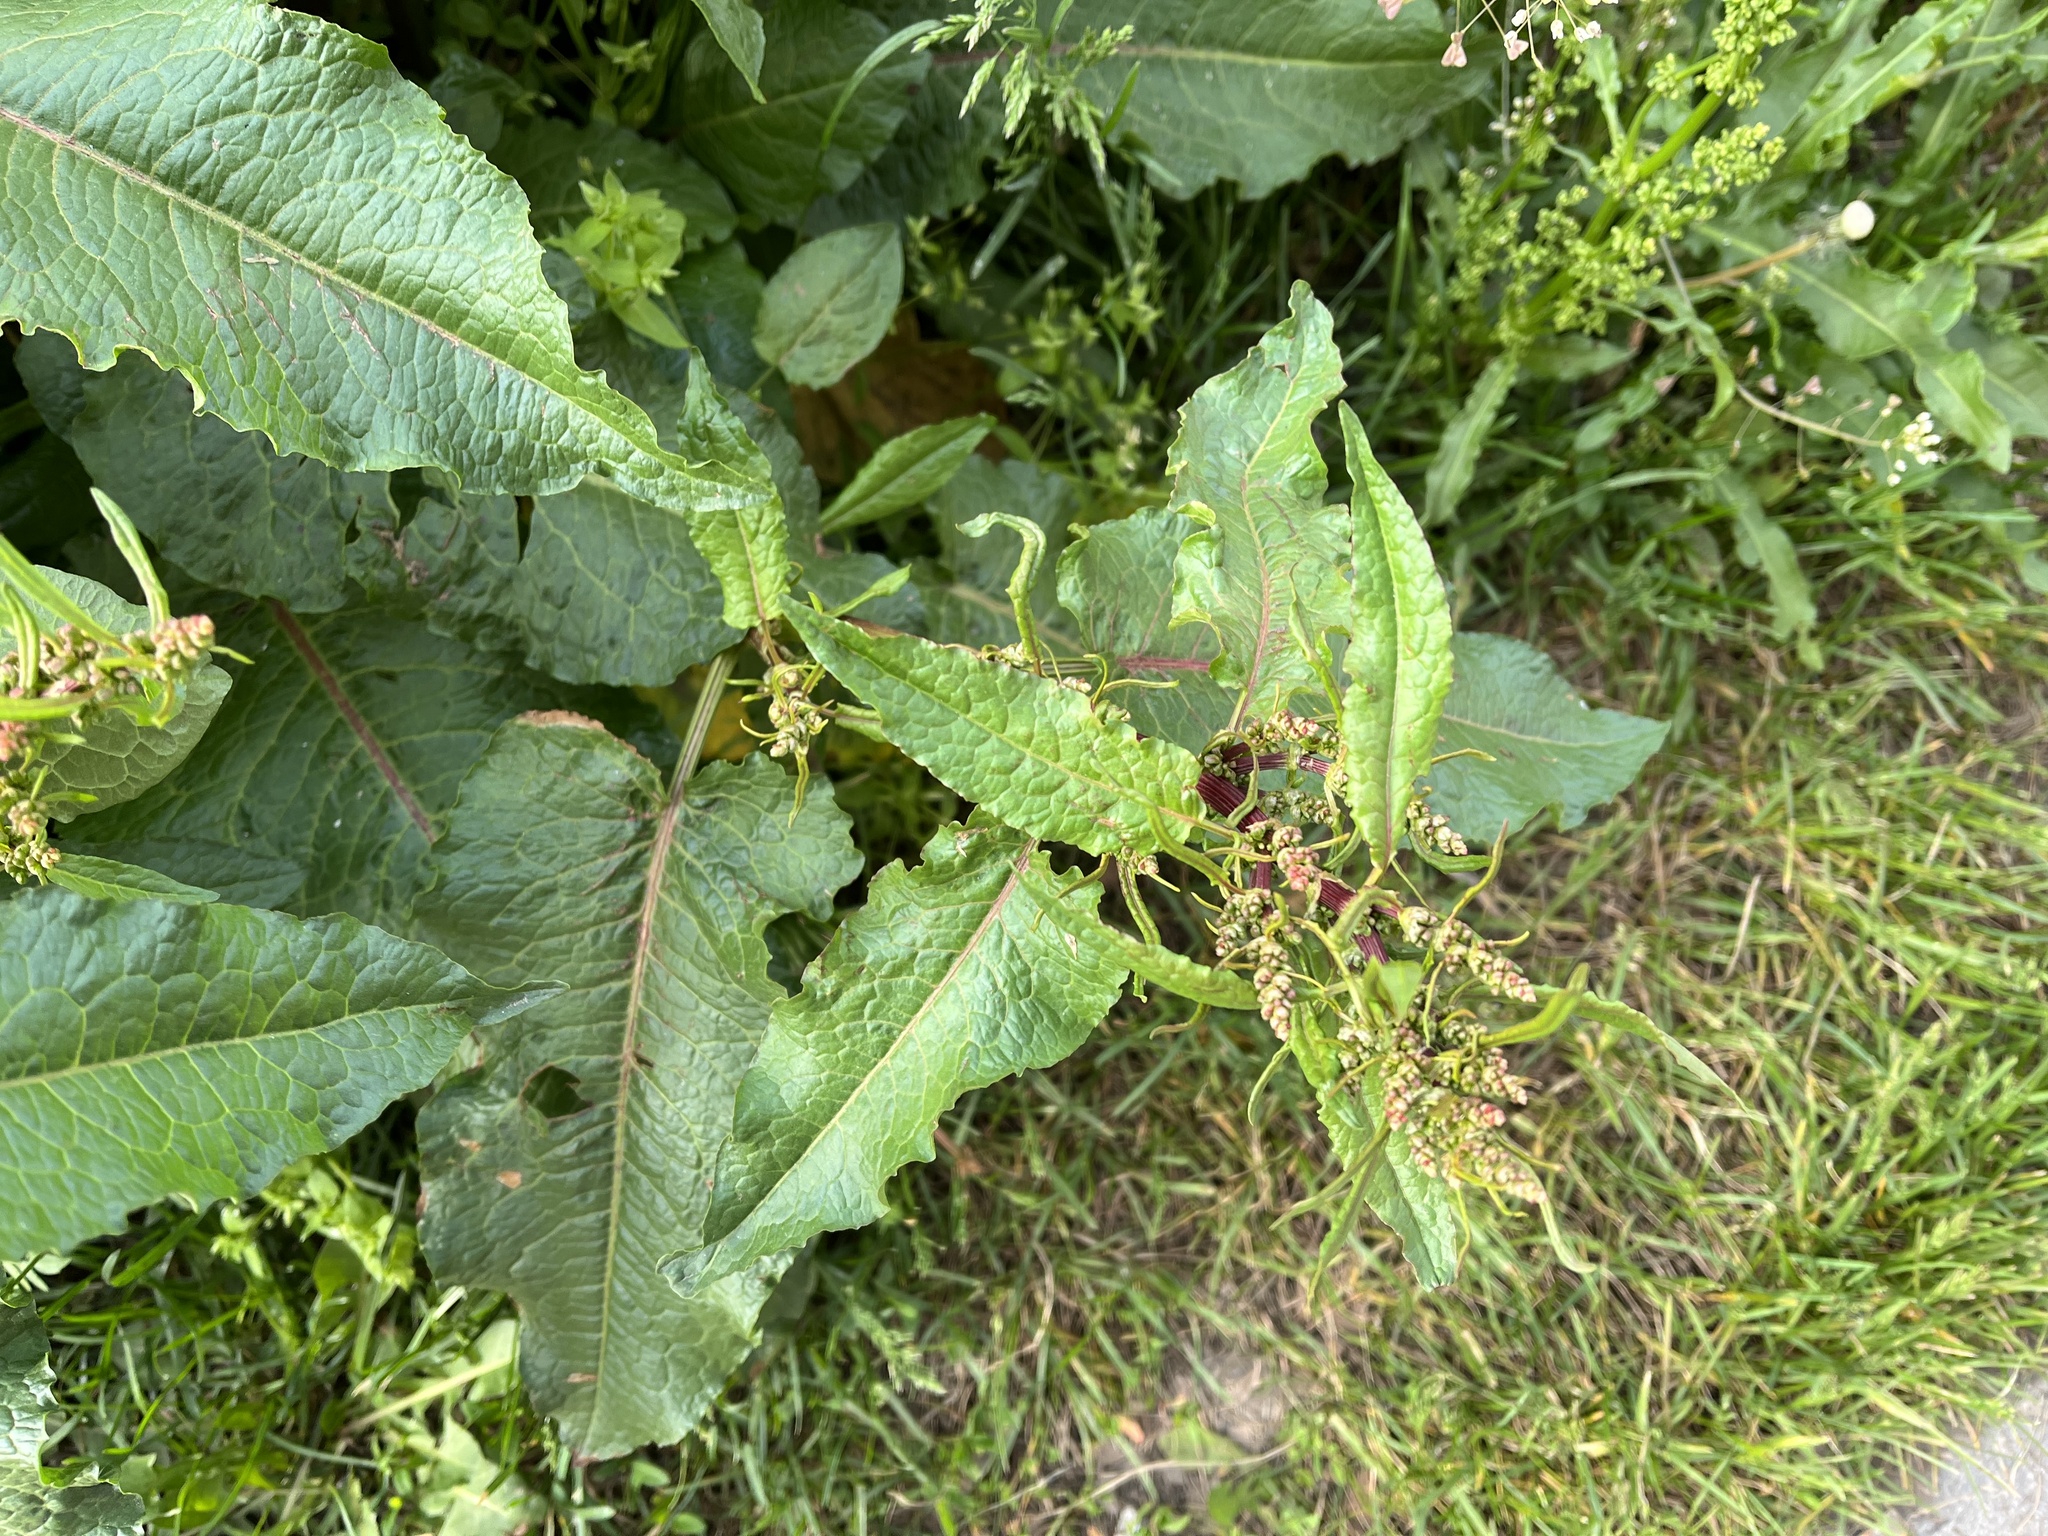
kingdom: Plantae
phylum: Tracheophyta
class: Magnoliopsida
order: Caryophyllales
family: Polygonaceae
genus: Rumex
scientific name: Rumex obtusifolius
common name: Bitter dock
